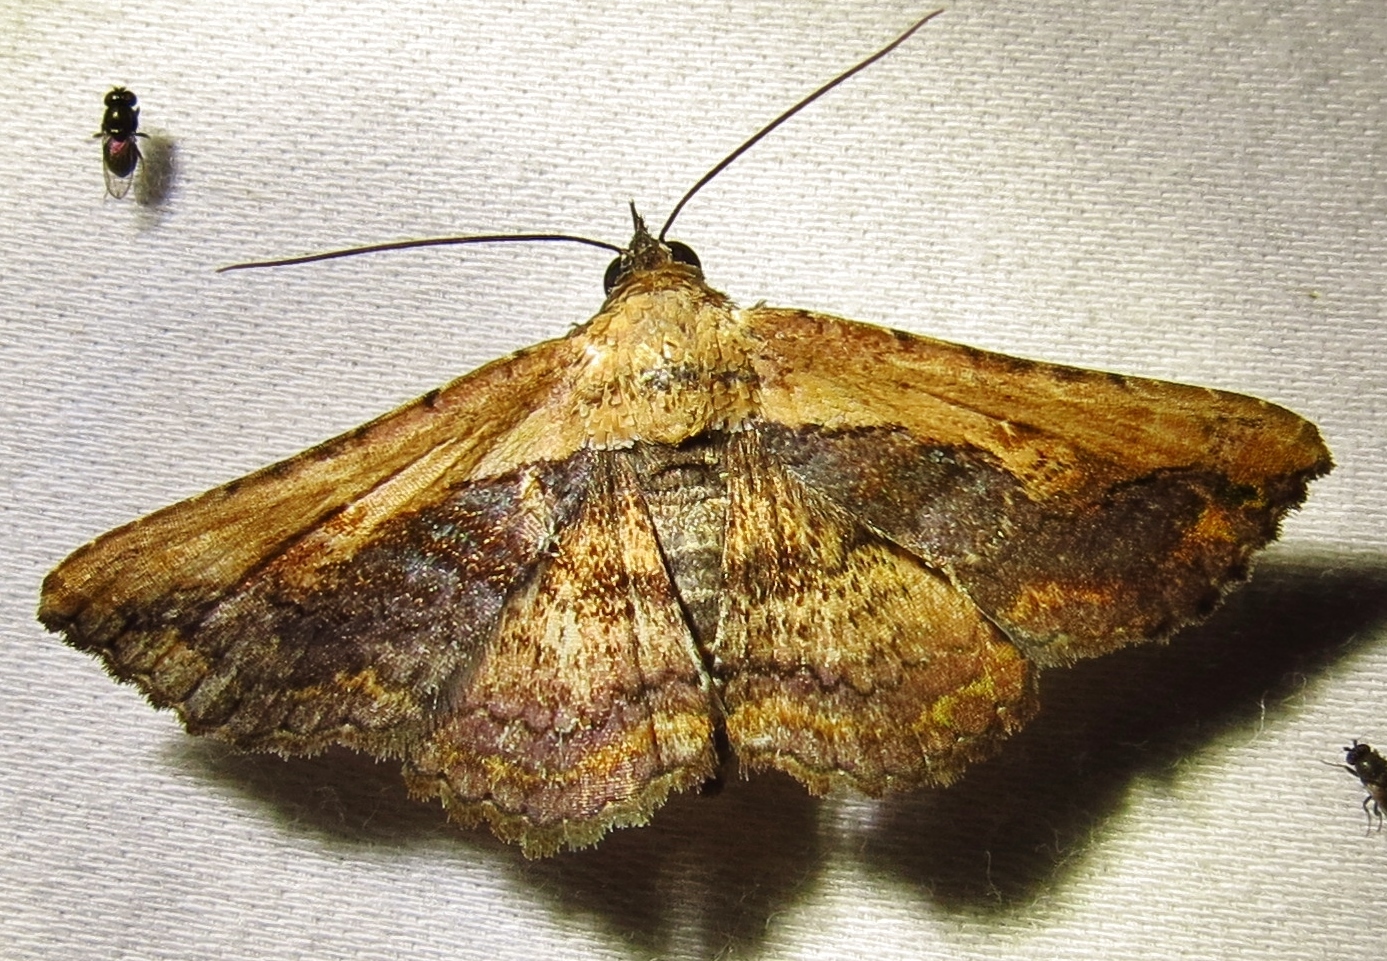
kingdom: Animalia
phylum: Arthropoda
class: Insecta
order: Lepidoptera
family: Erebidae
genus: Selenisa
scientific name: Selenisa sueroides
